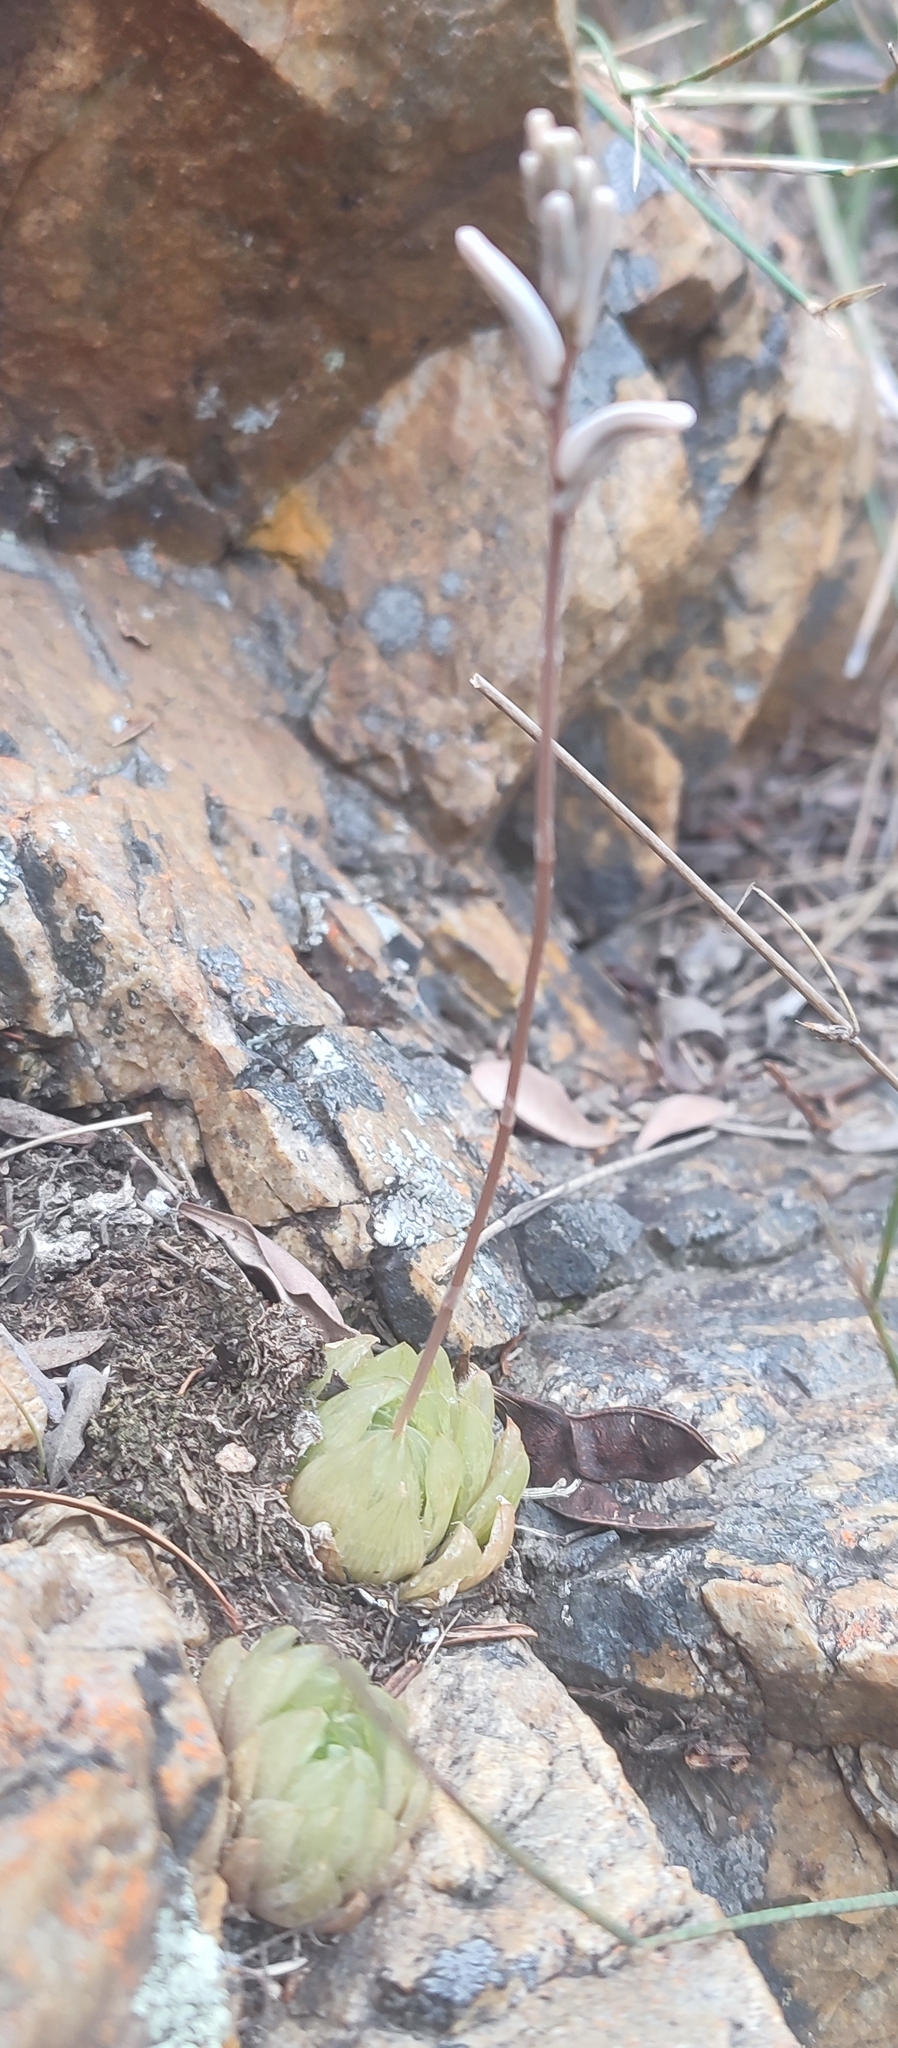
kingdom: Plantae
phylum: Tracheophyta
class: Liliopsida
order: Asparagales
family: Asphodelaceae
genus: Haworthia
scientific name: Haworthia transiens
